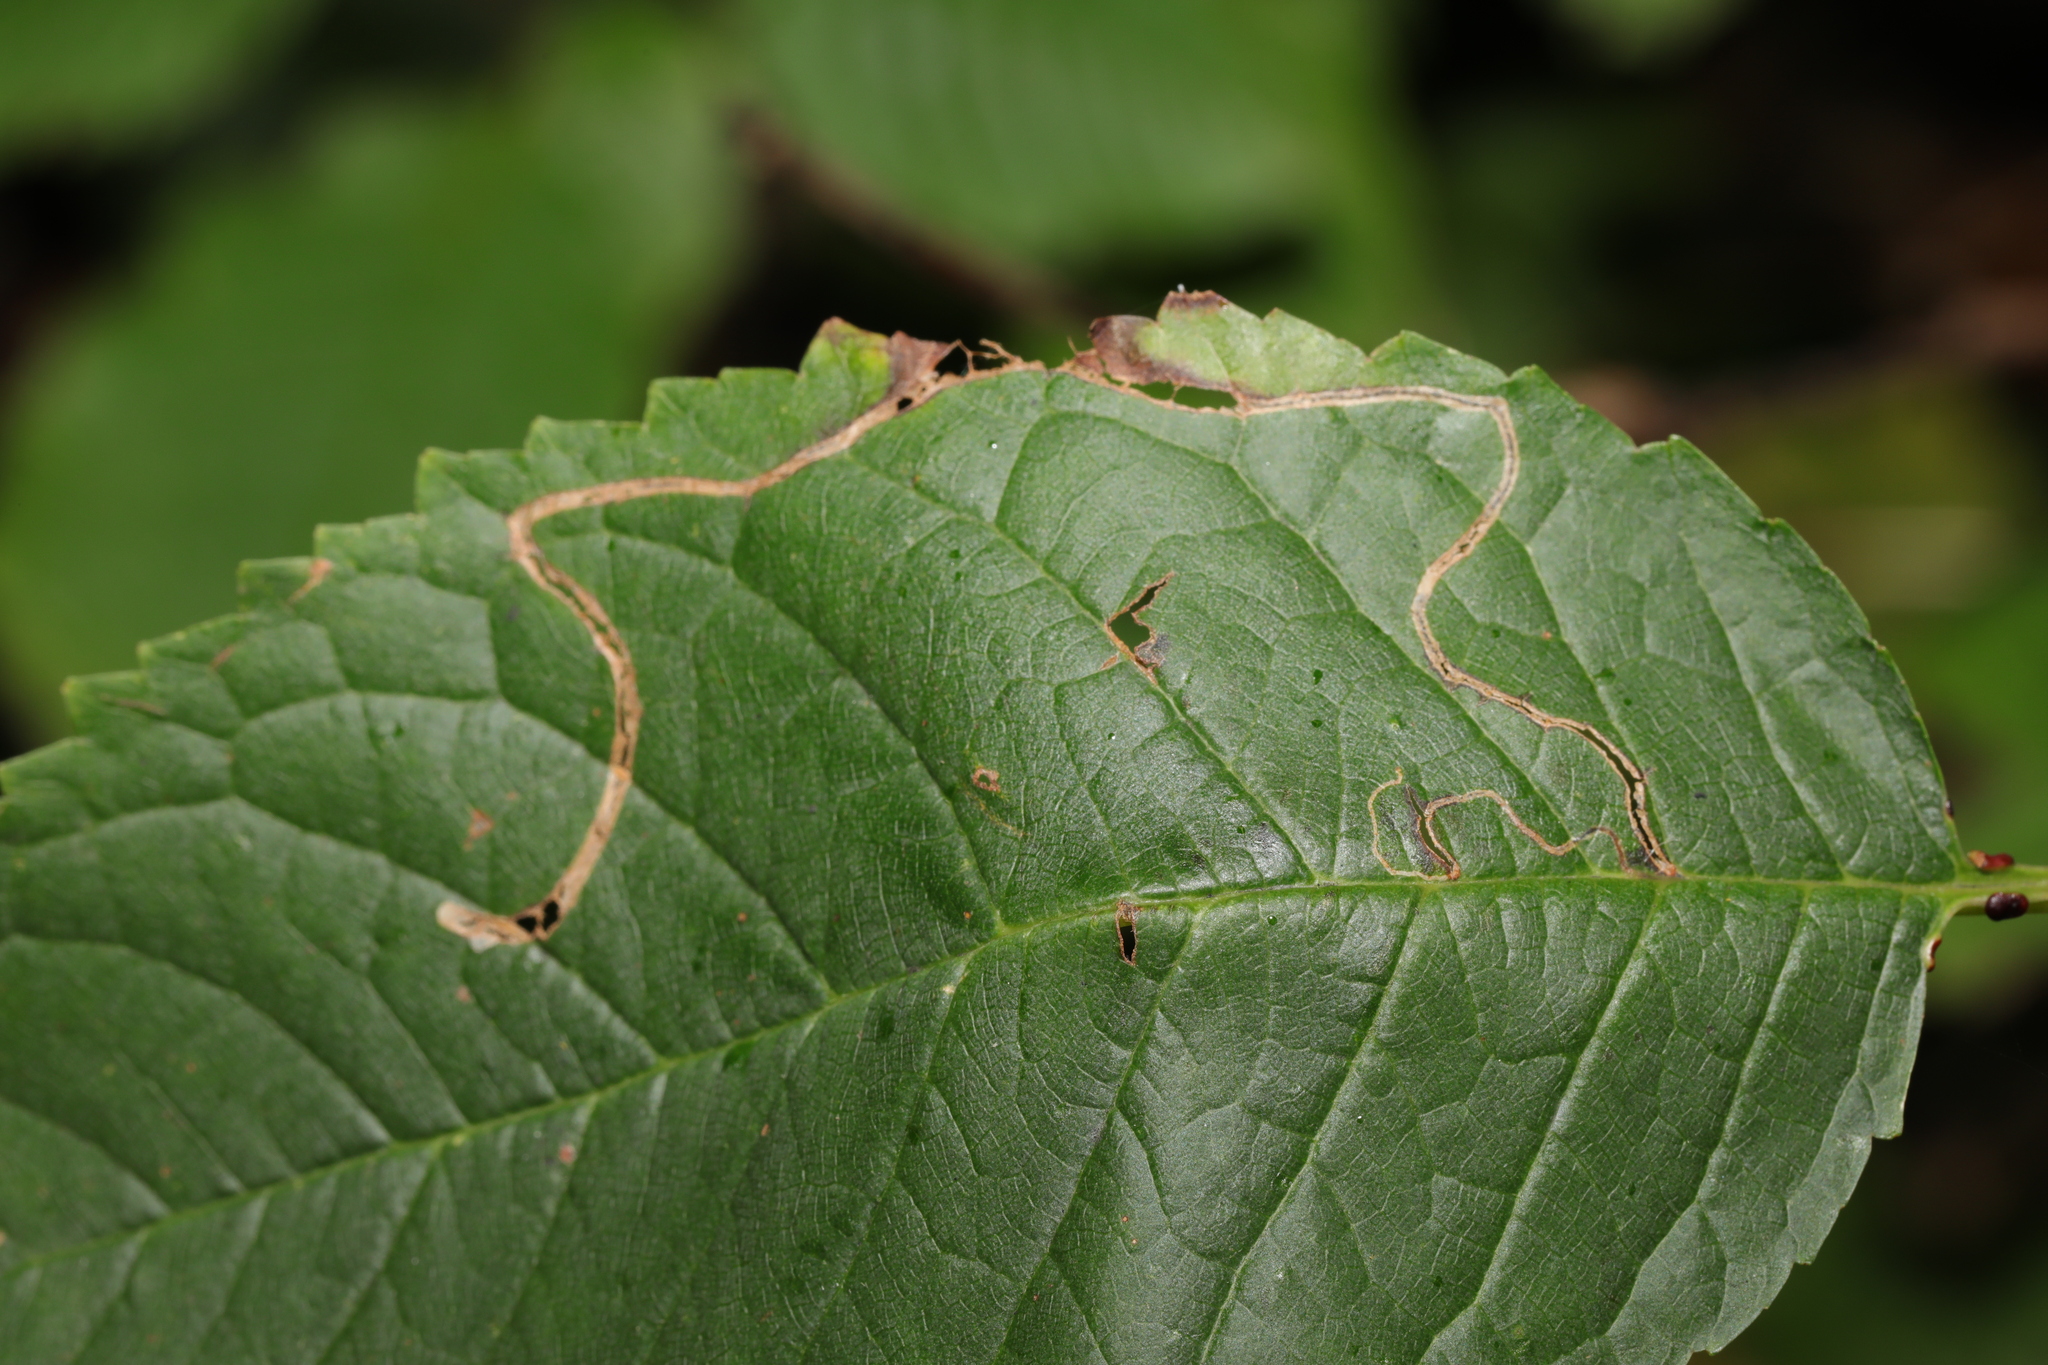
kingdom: Animalia
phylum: Arthropoda
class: Insecta
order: Lepidoptera
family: Lyonetiidae
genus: Lyonetia
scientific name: Lyonetia clerkella
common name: Apple leaf miner
